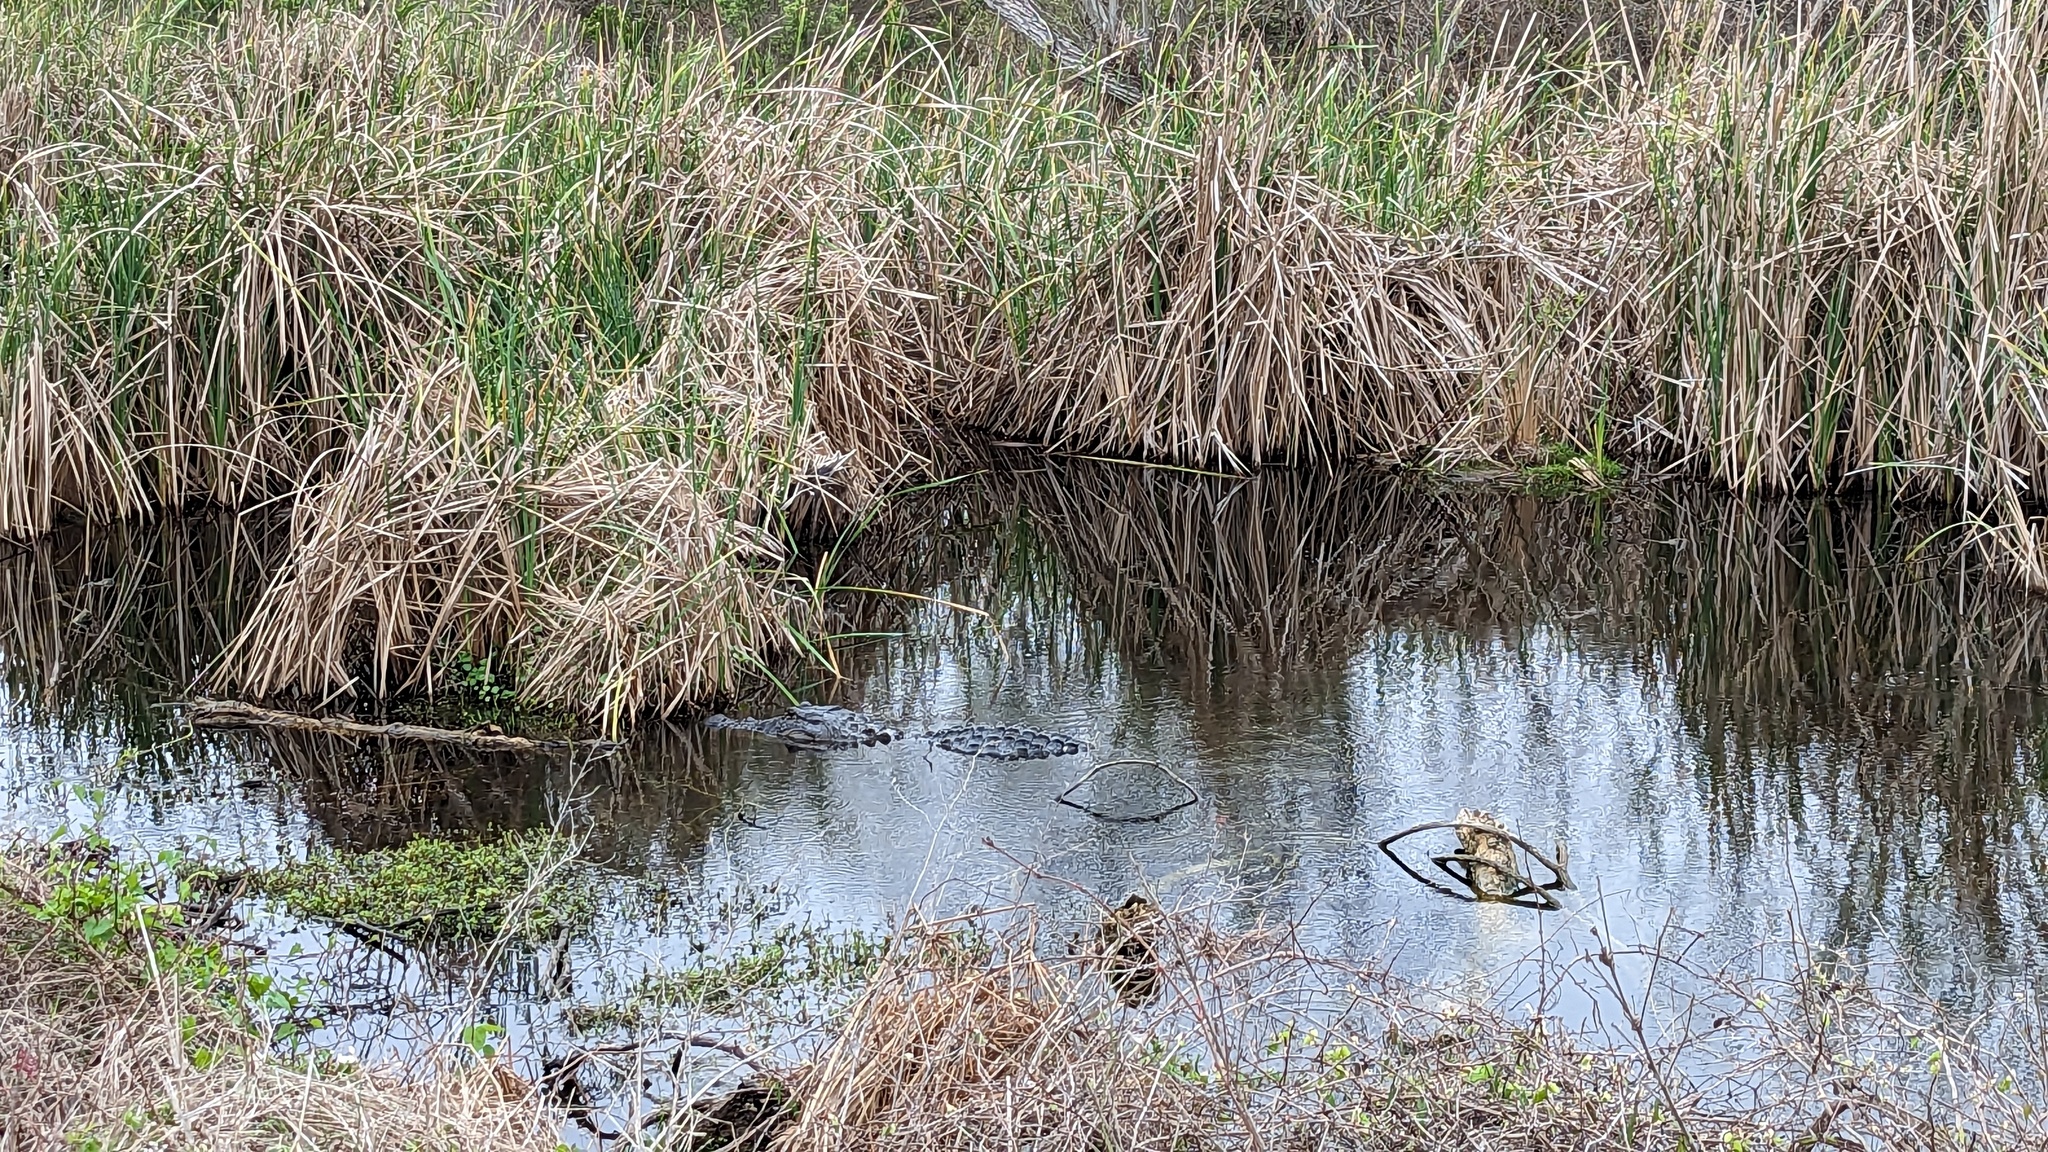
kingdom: Animalia
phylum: Chordata
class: Crocodylia
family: Alligatoridae
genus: Alligator
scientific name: Alligator mississippiensis
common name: American alligator
